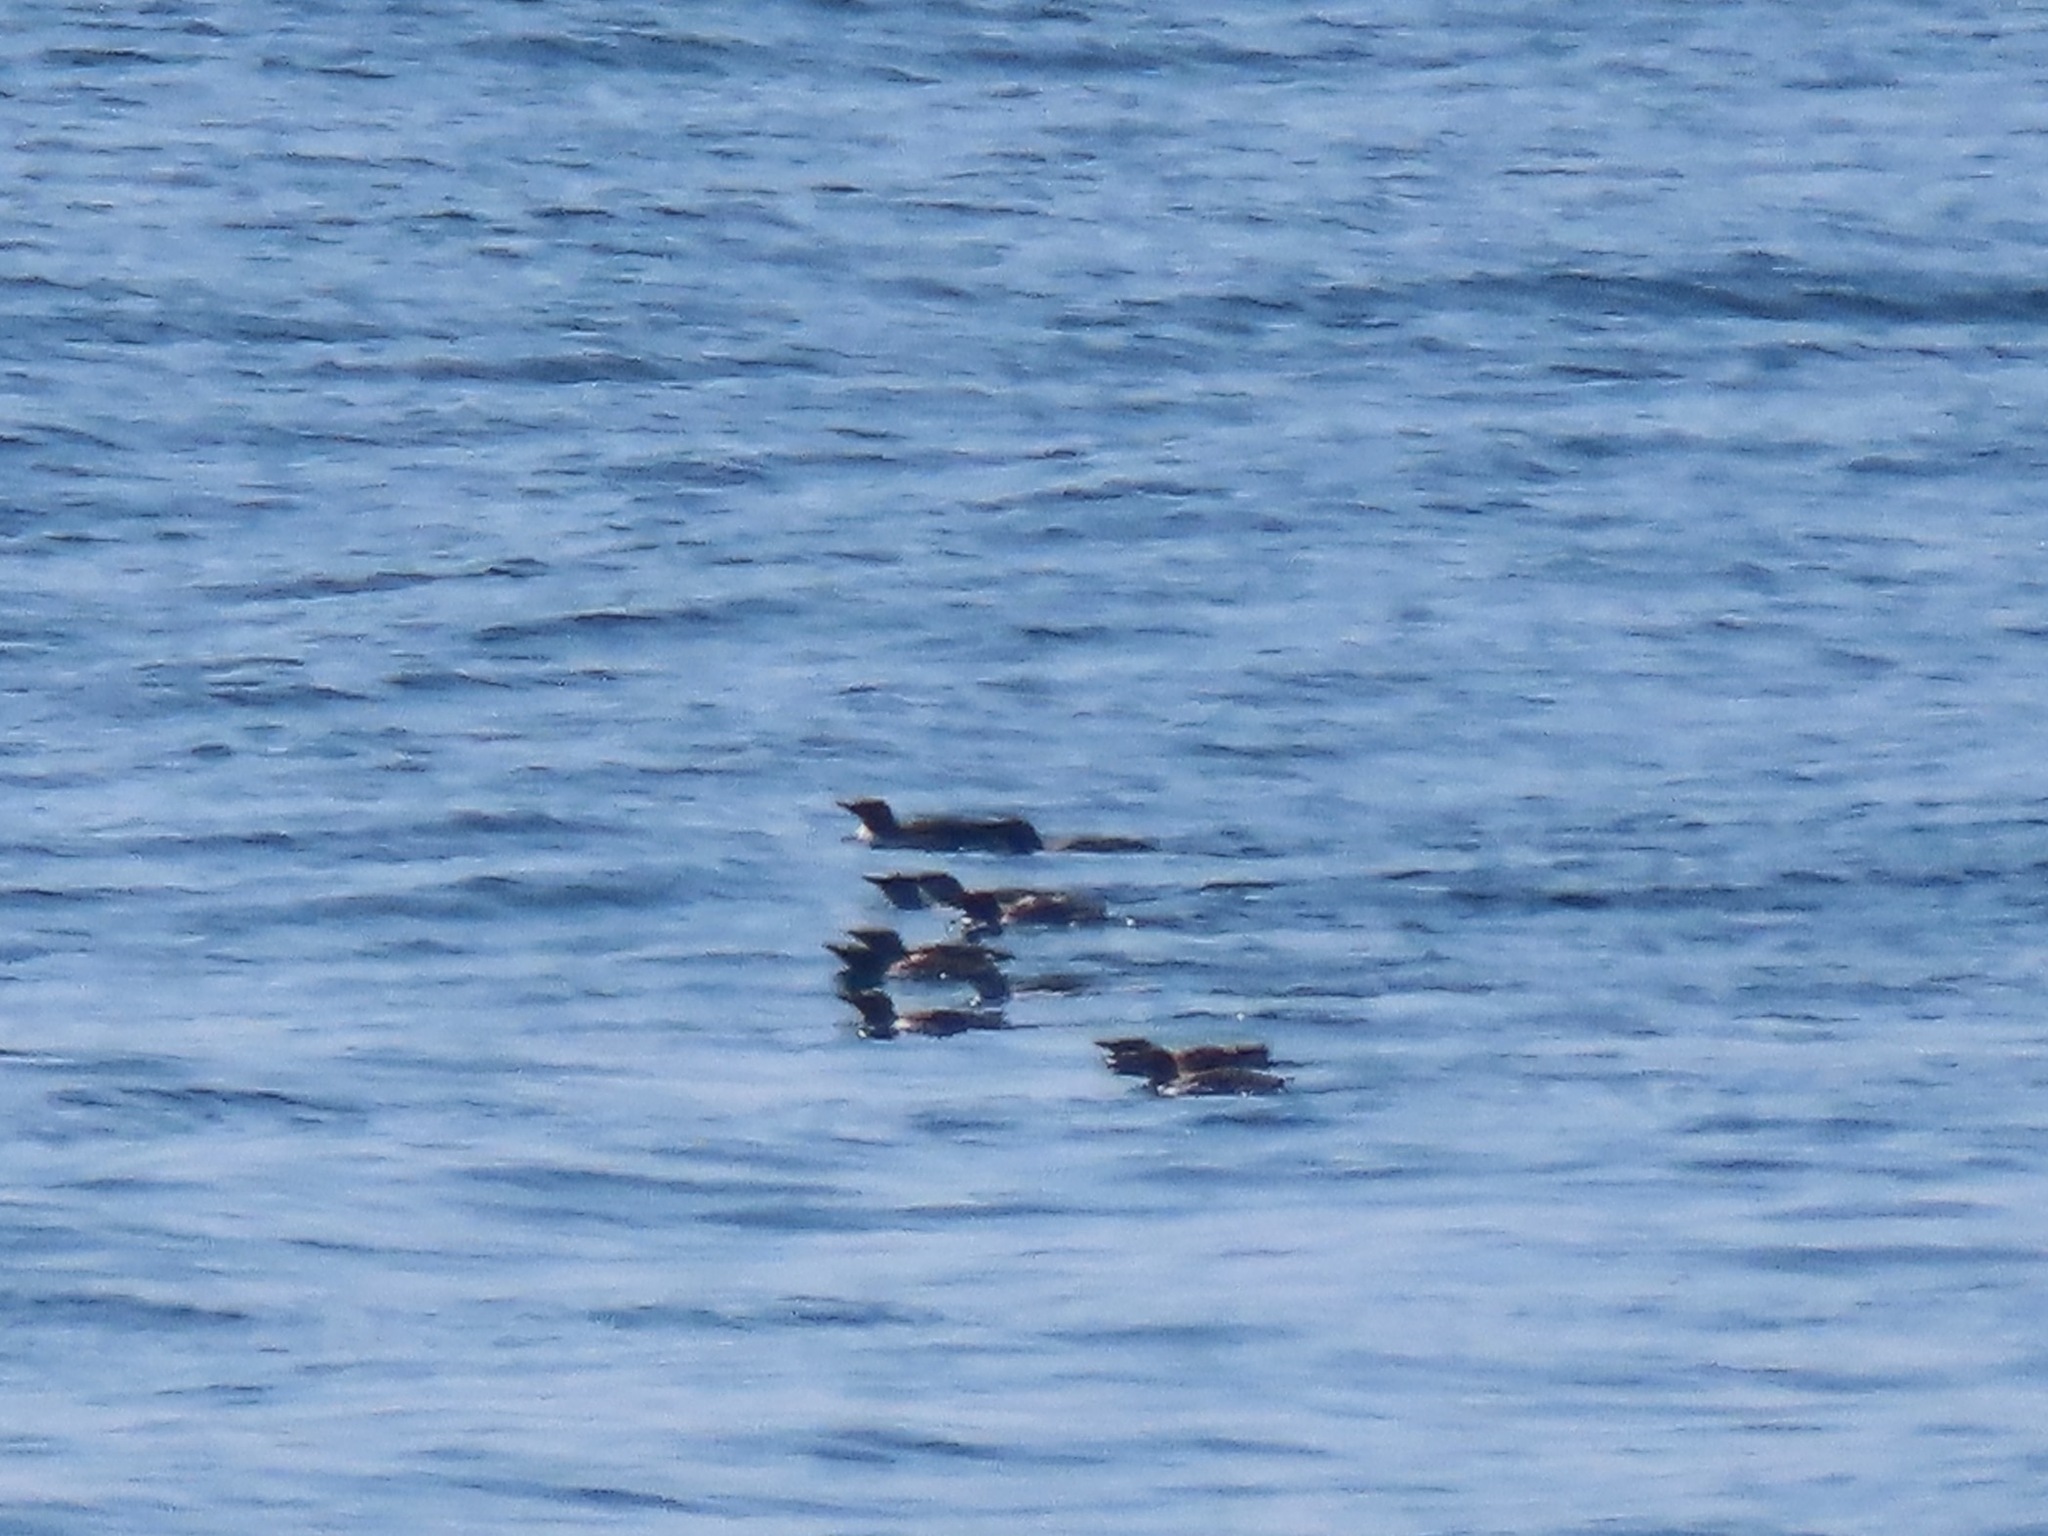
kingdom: Animalia
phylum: Chordata
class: Aves
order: Charadriiformes
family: Alcidae
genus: Uria
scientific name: Uria aalge
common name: Common murre
